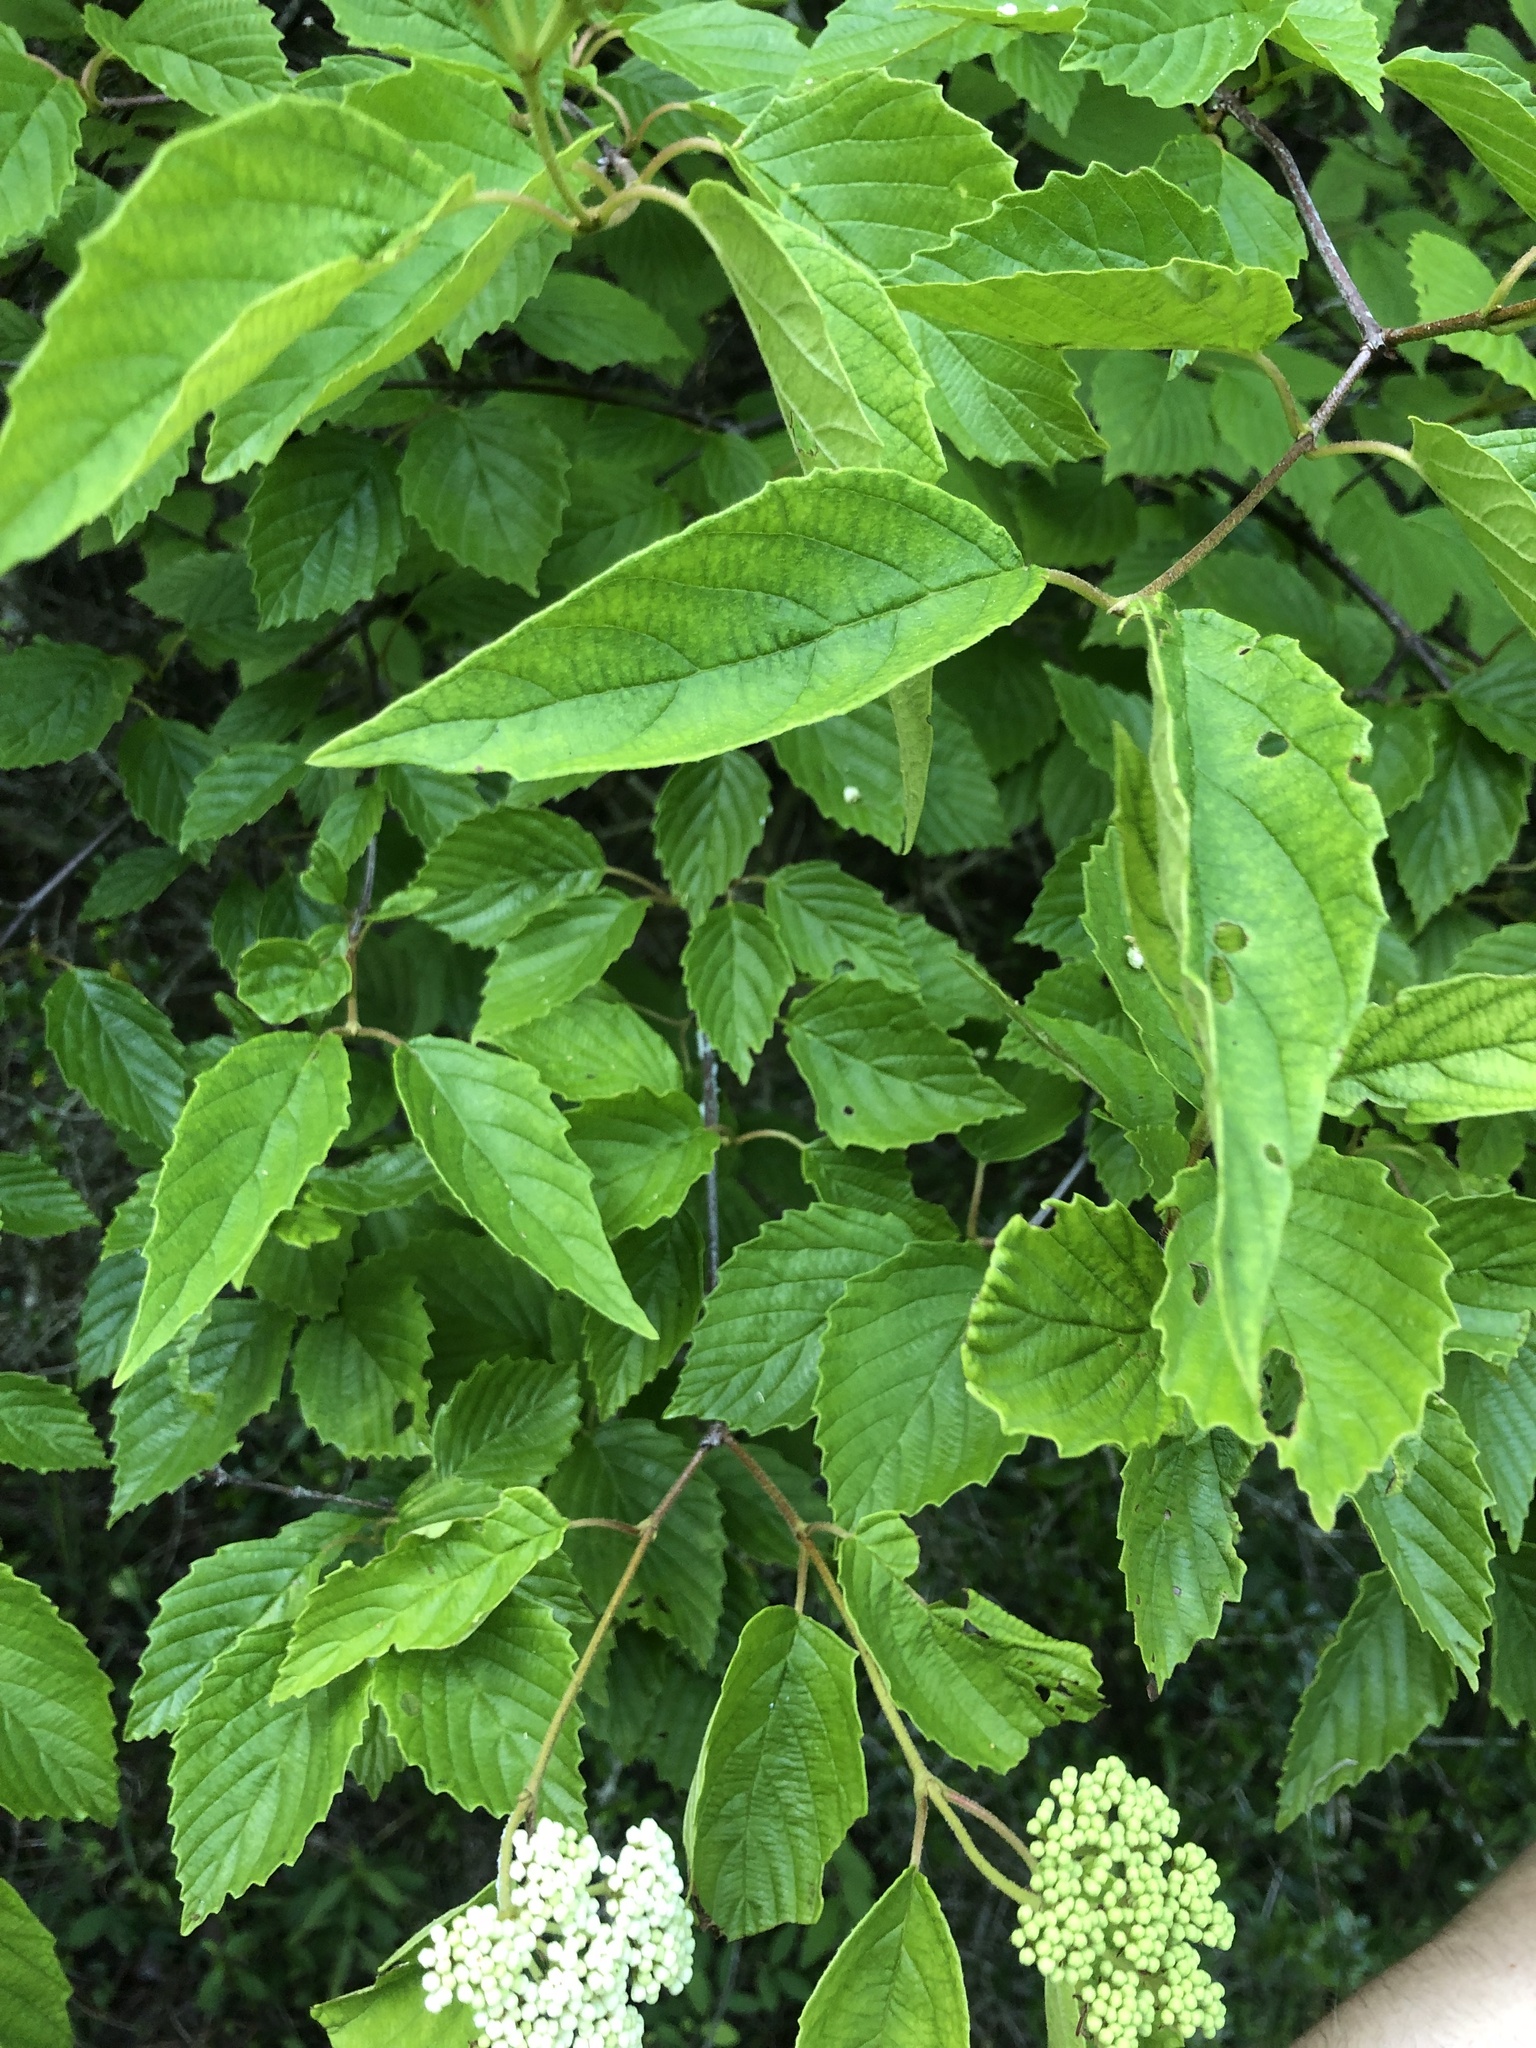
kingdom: Plantae
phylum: Tracheophyta
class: Magnoliopsida
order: Dipsacales
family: Viburnaceae
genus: Viburnum
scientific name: Viburnum scabrellum
